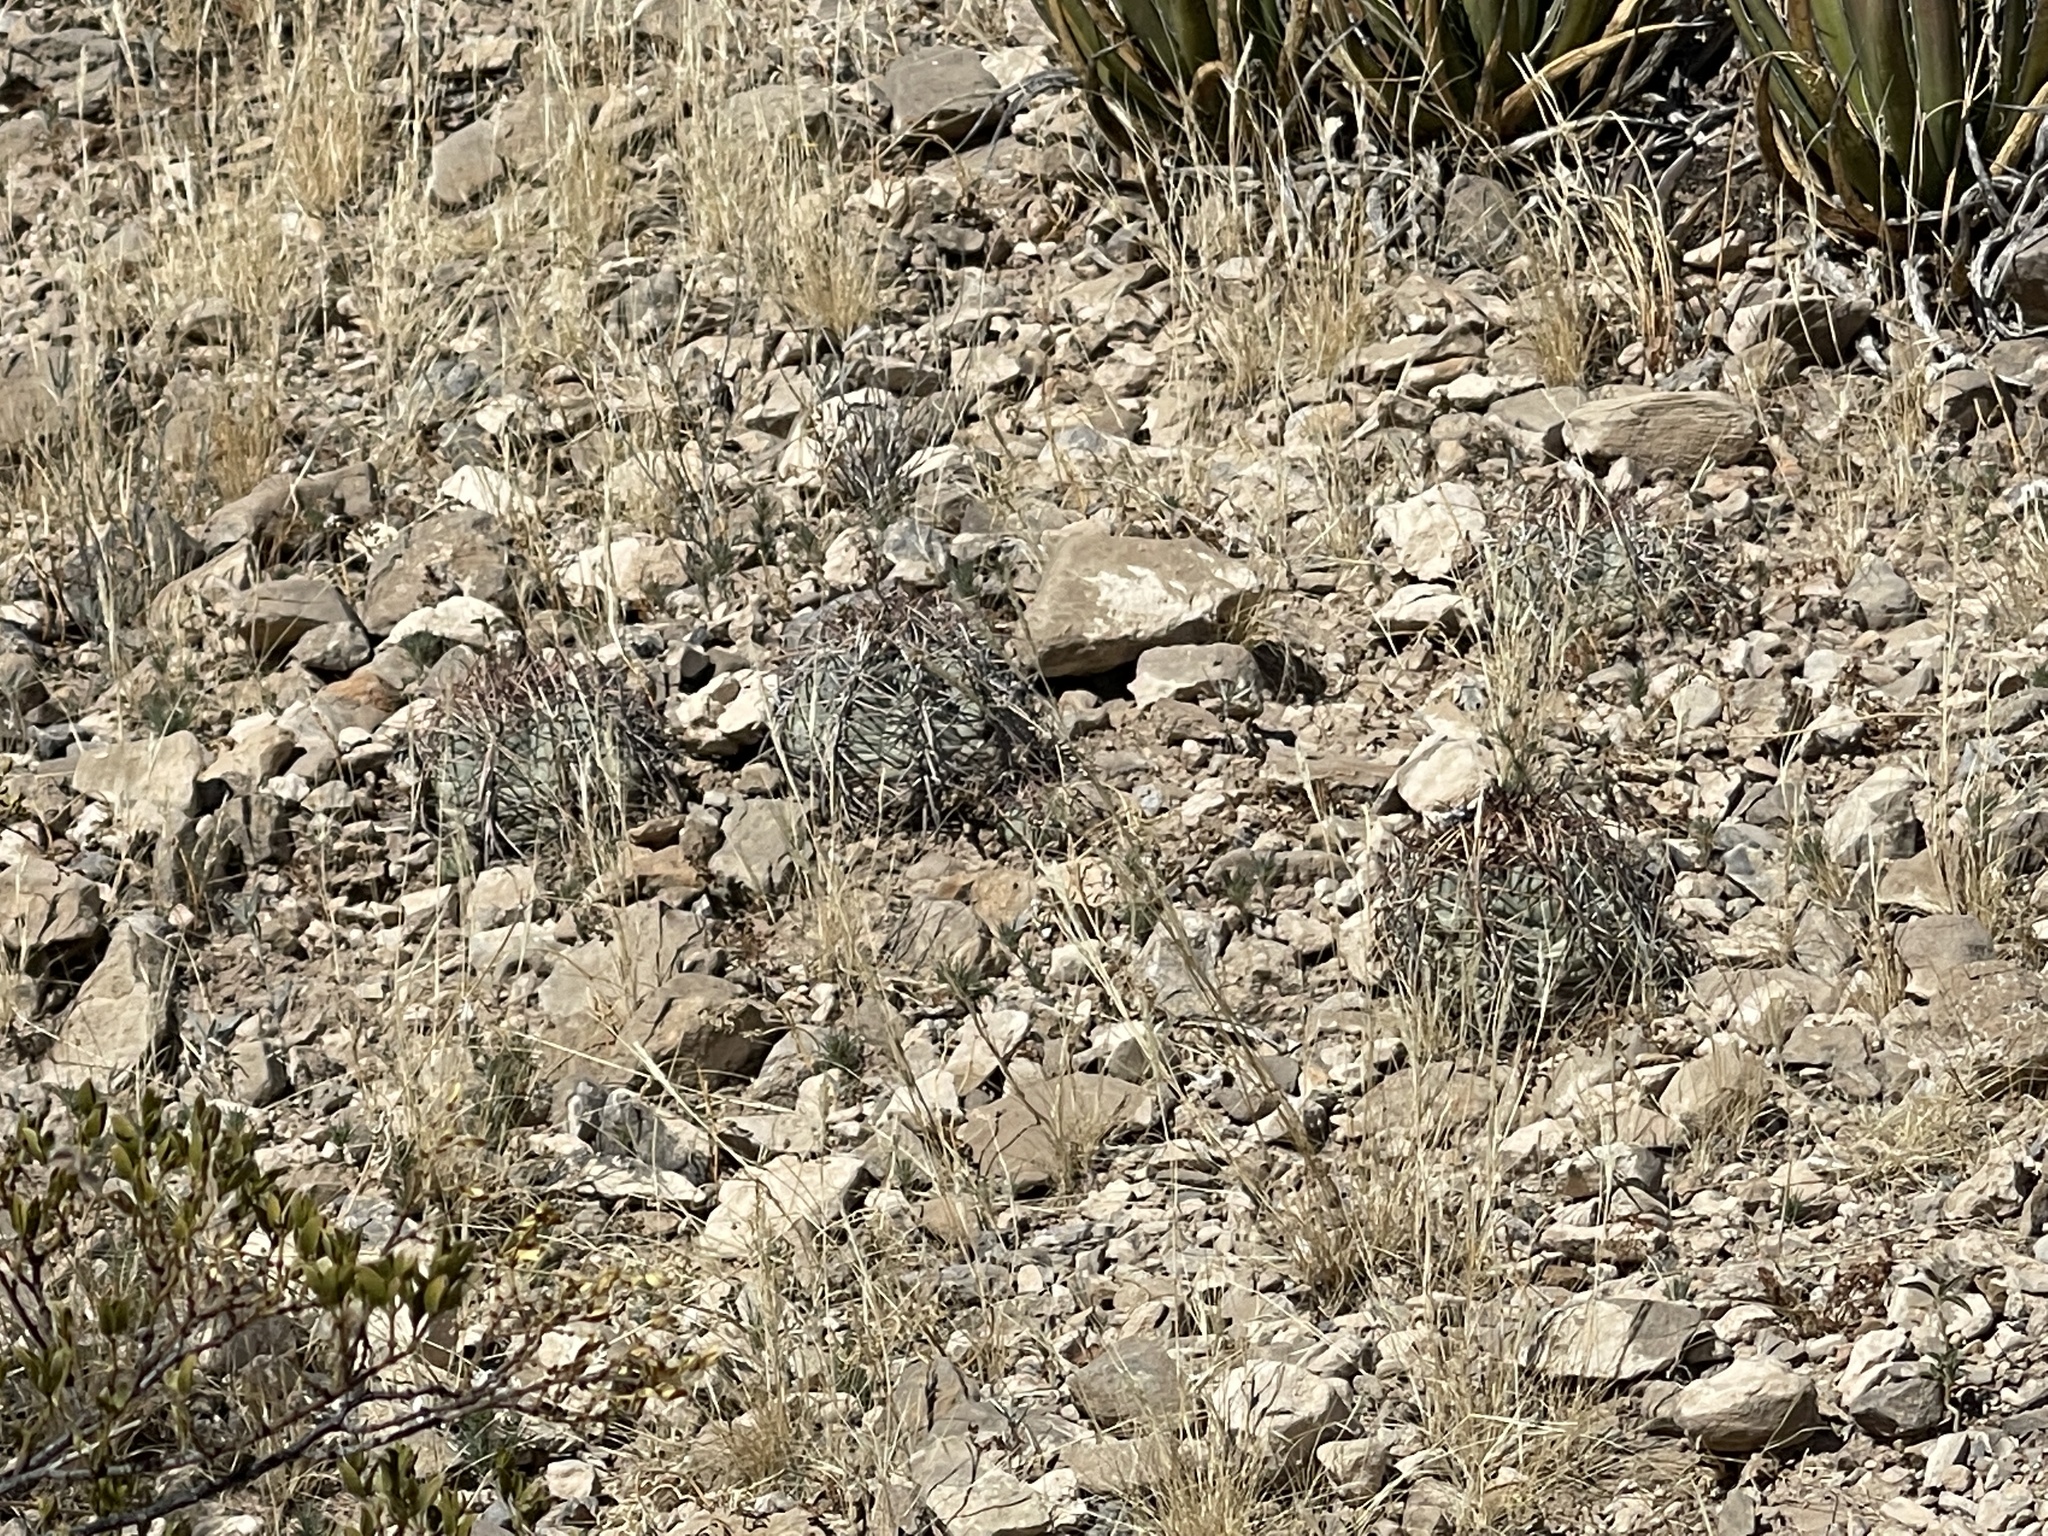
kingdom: Plantae
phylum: Tracheophyta
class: Magnoliopsida
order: Caryophyllales
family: Cactaceae
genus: Echinocactus
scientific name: Echinocactus horizonthalonius
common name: Devilshead
